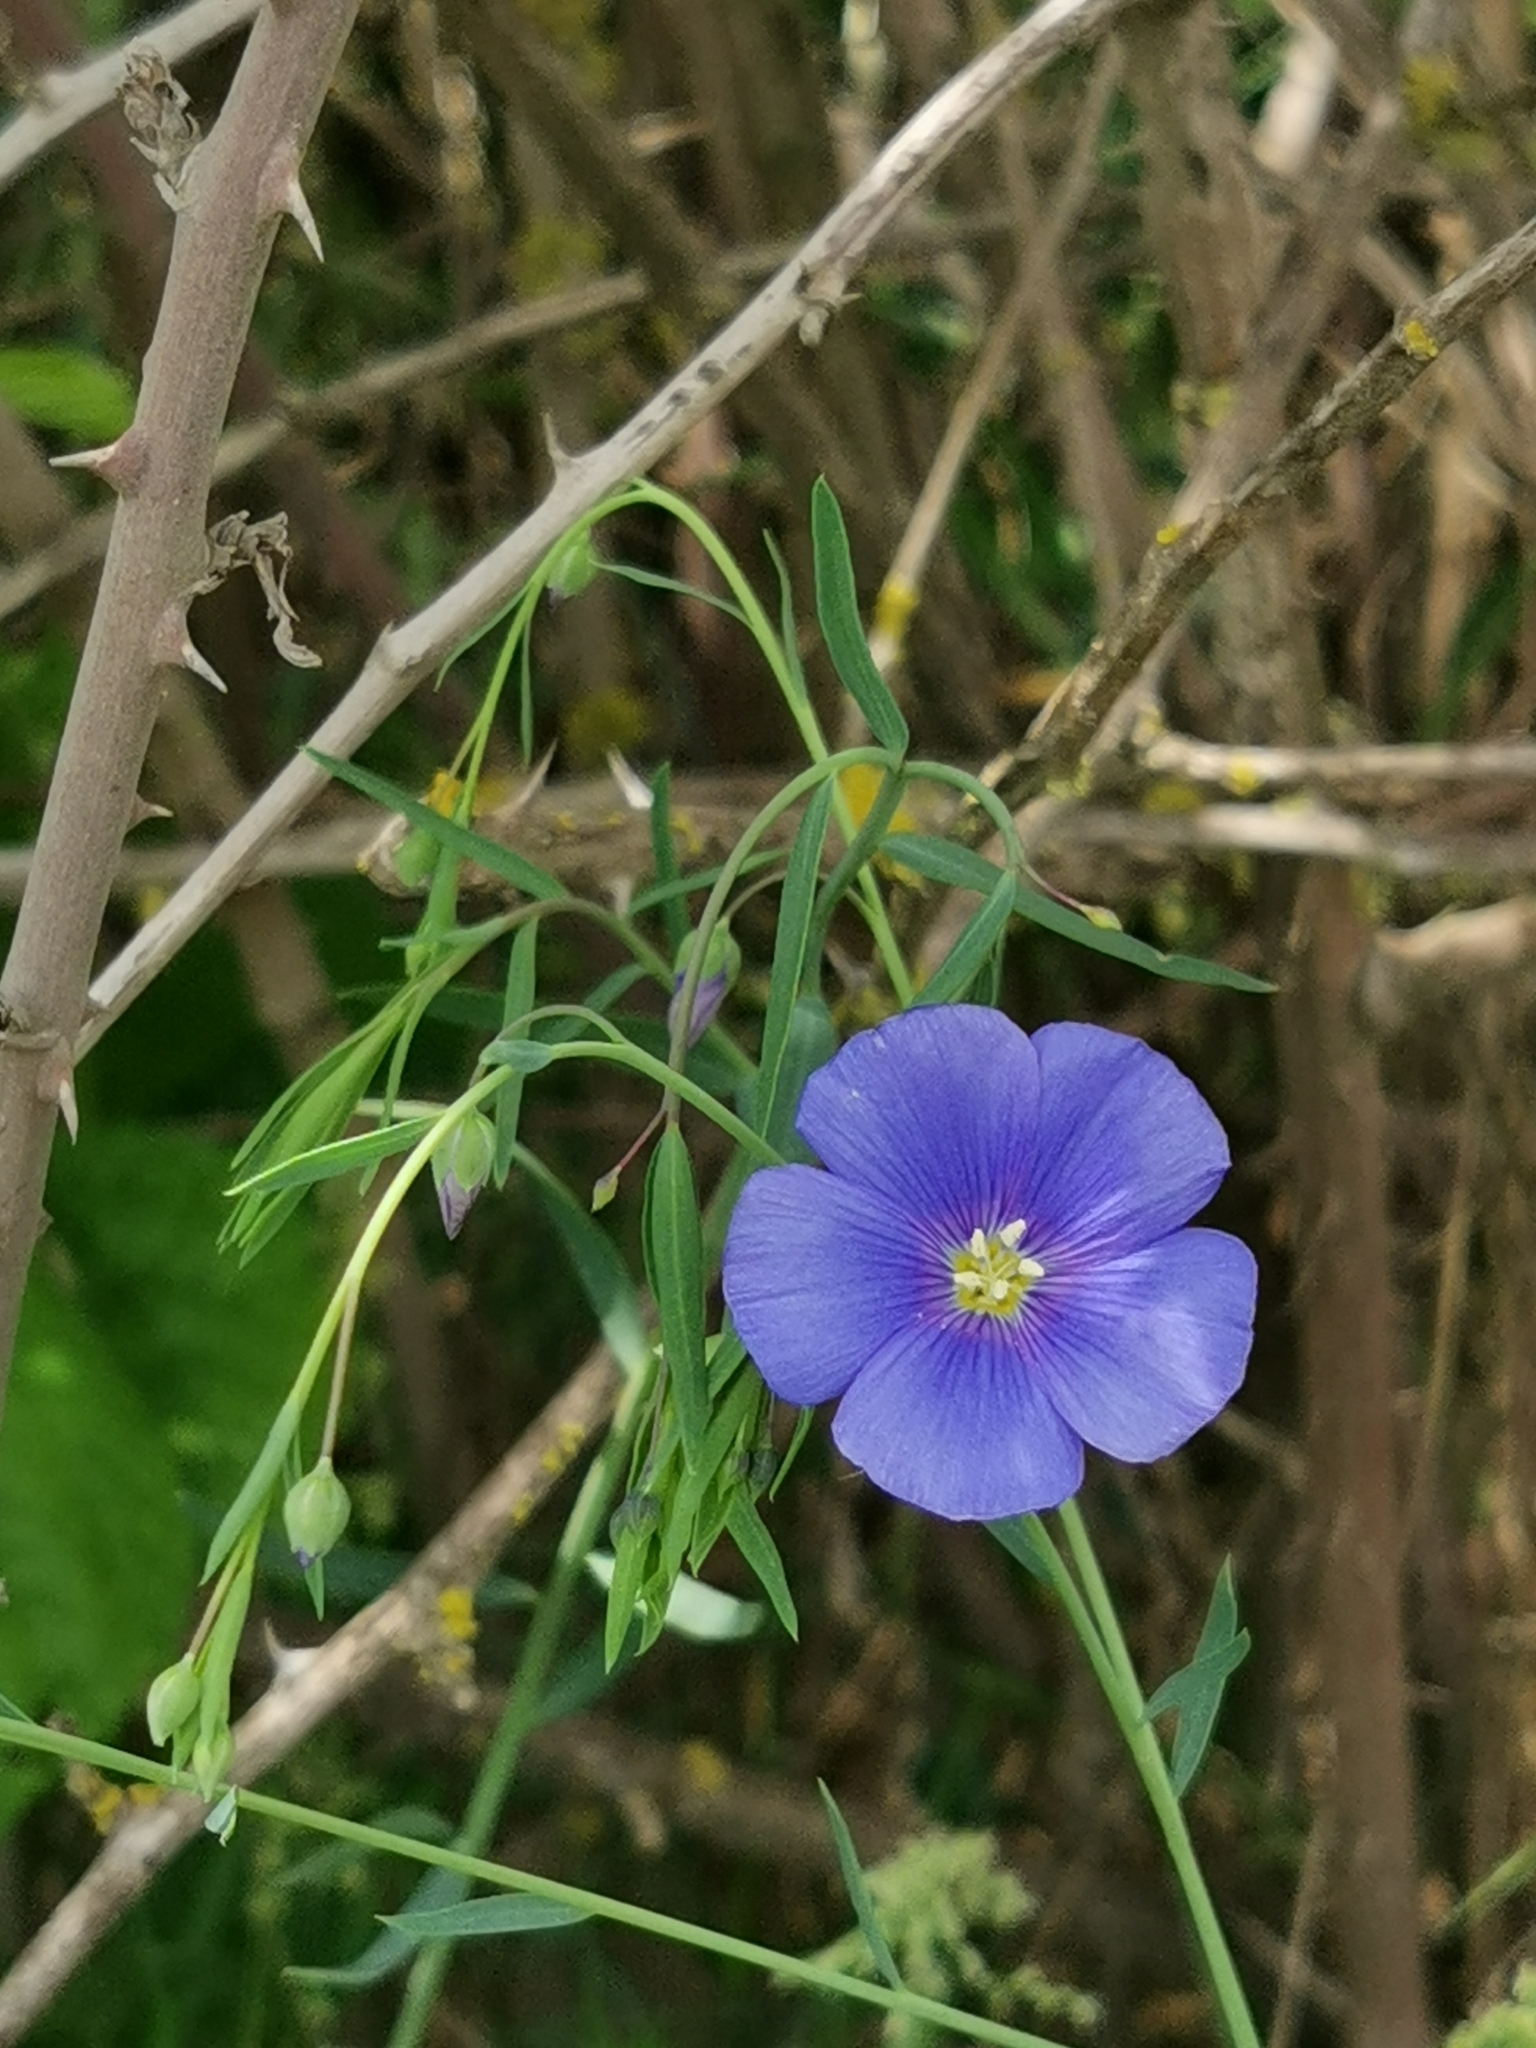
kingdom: Plantae
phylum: Tracheophyta
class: Magnoliopsida
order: Malpighiales
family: Linaceae
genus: Linum
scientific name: Linum austriacum
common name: Austrian flax
